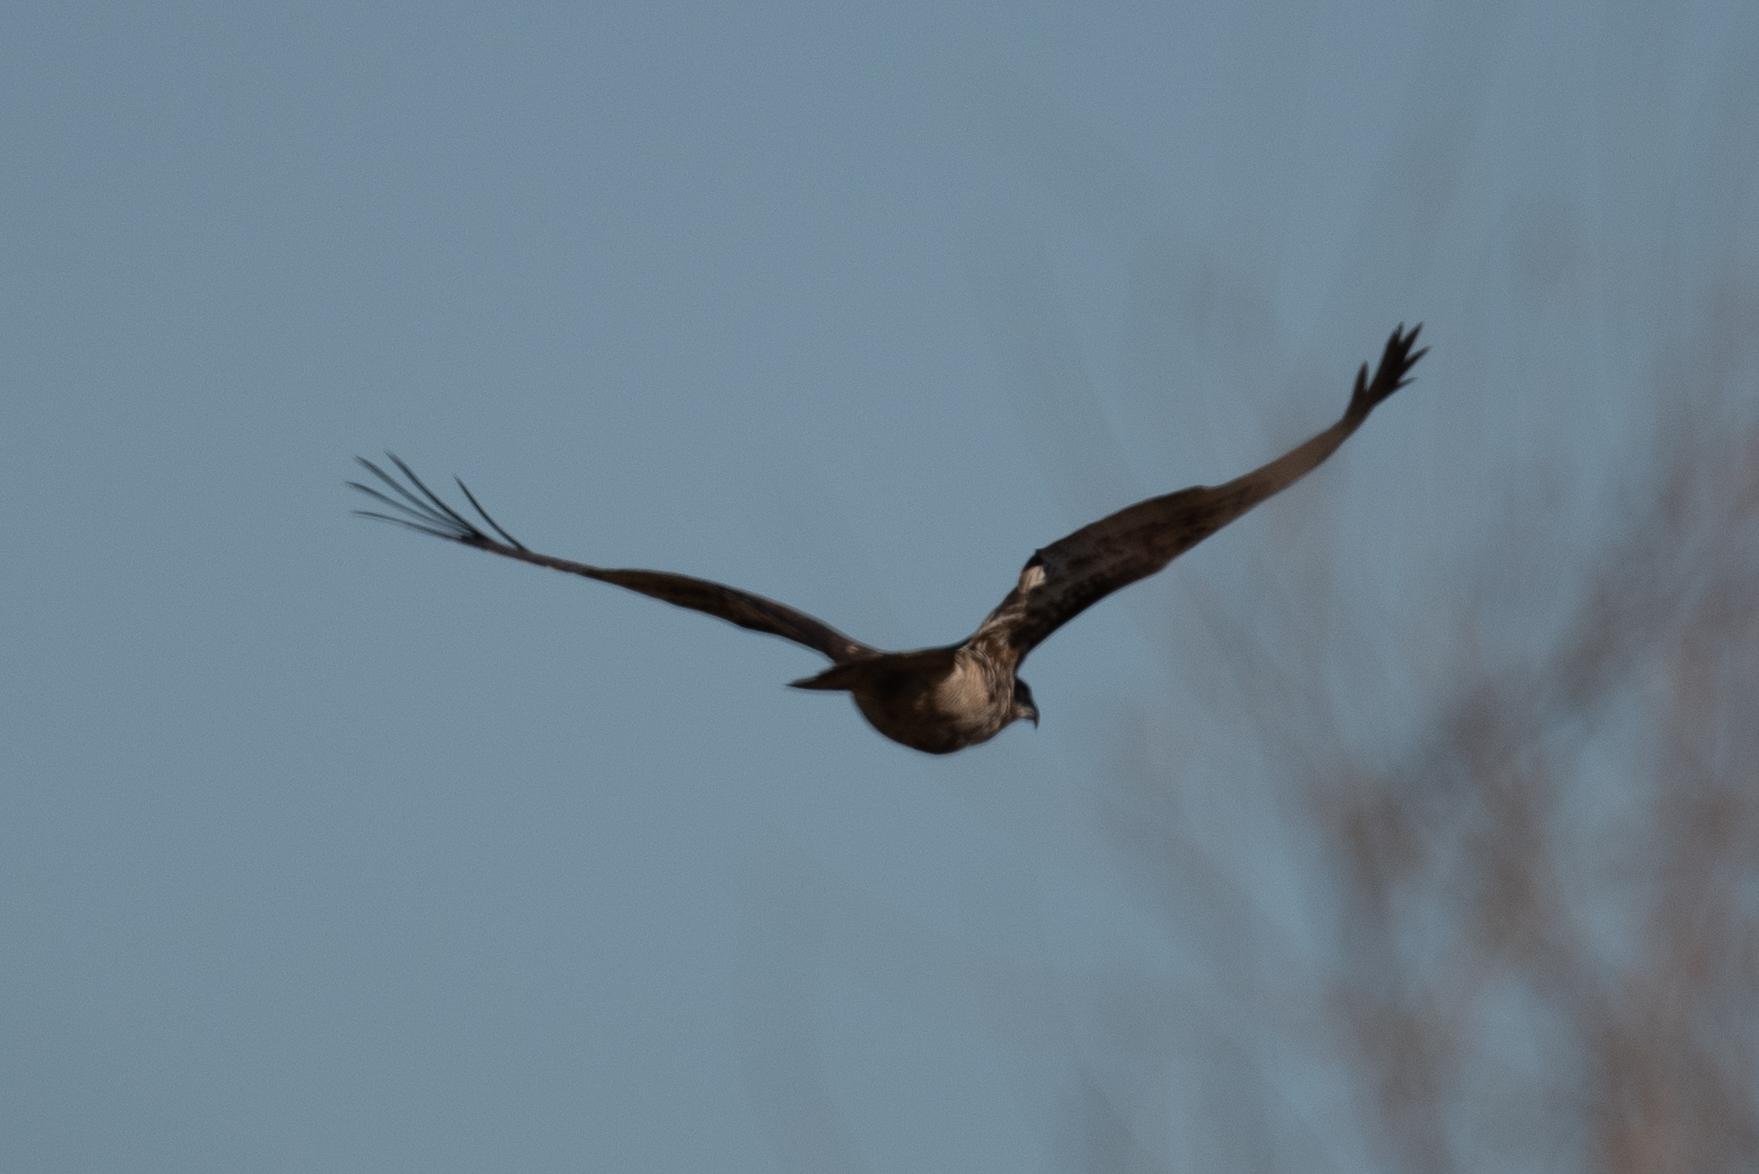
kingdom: Animalia
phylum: Chordata
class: Aves
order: Accipitriformes
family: Accipitridae
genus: Buteo
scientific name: Buteo jamaicensis
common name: Red-tailed hawk
